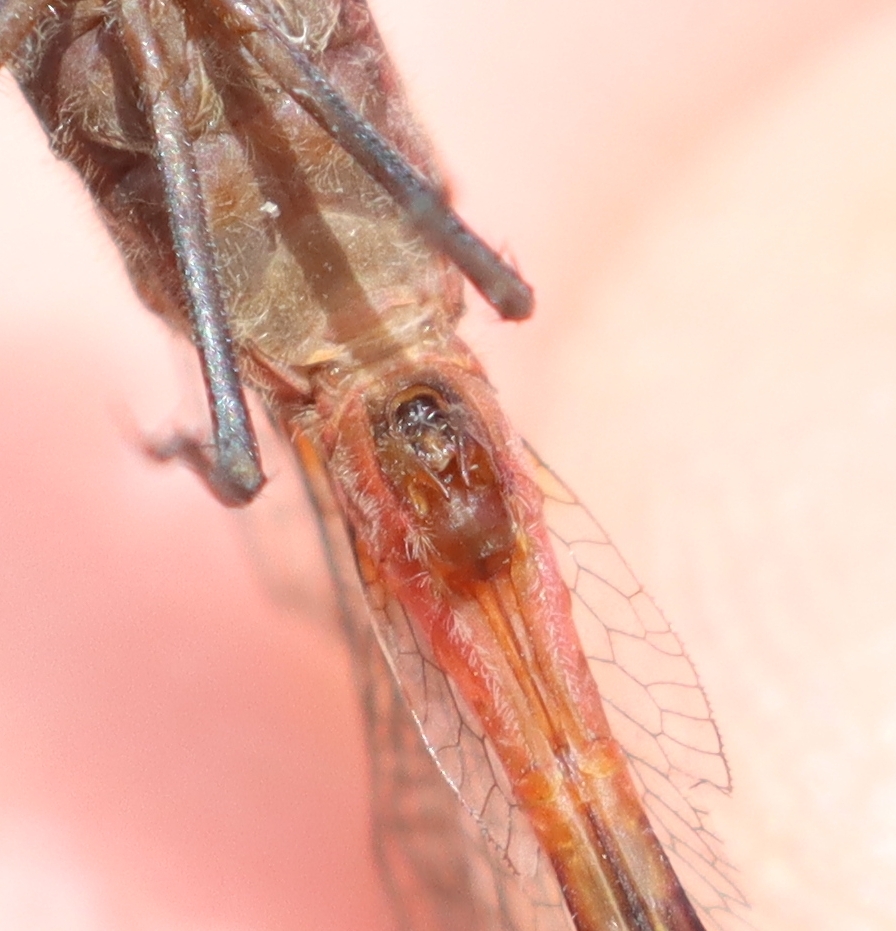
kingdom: Animalia
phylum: Arthropoda
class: Insecta
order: Odonata
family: Libellulidae
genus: Sympetrum
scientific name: Sympetrum rubicundulum
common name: Ruby meadowhawk
